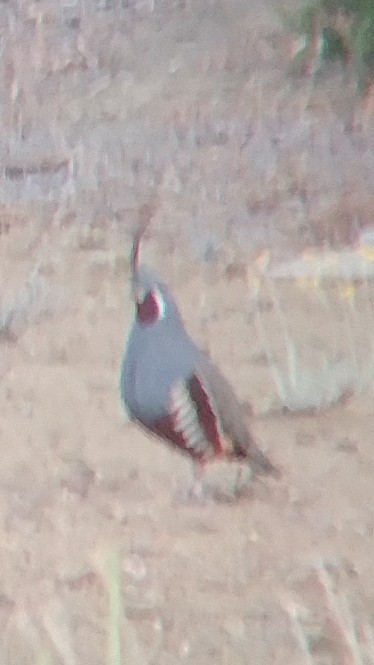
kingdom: Animalia
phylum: Chordata
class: Aves
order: Galliformes
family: Odontophoridae
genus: Oreortyx
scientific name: Oreortyx pictus
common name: Mountain quail
